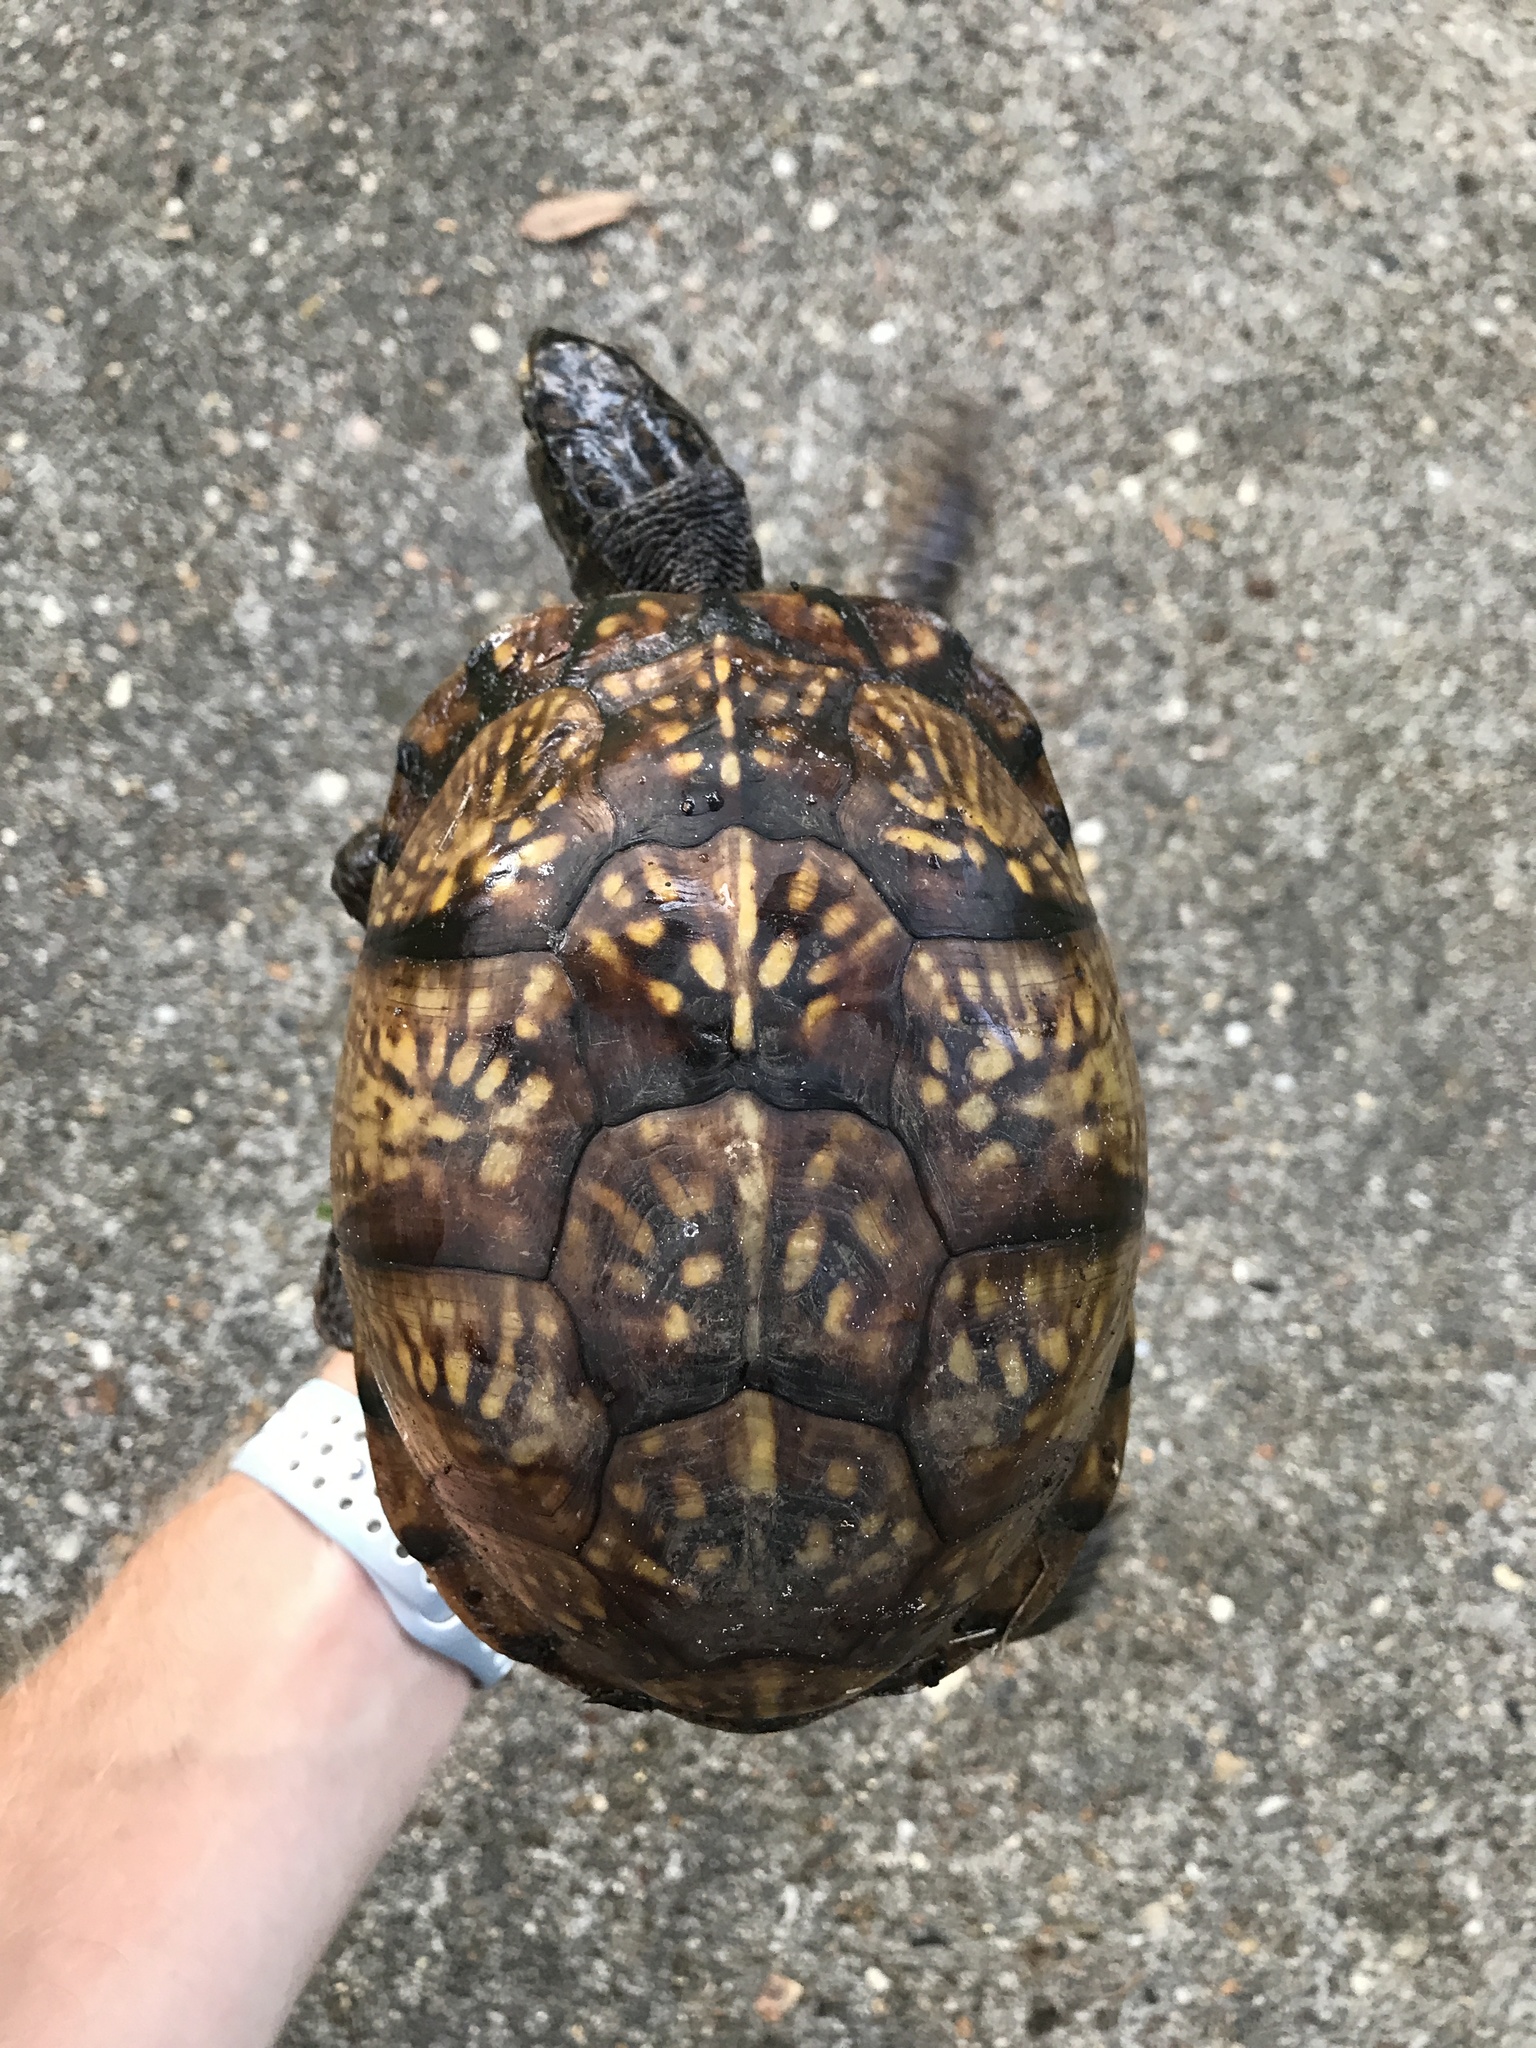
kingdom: Animalia
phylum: Chordata
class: Testudines
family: Emydidae
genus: Terrapene
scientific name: Terrapene carolina
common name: Common box turtle
